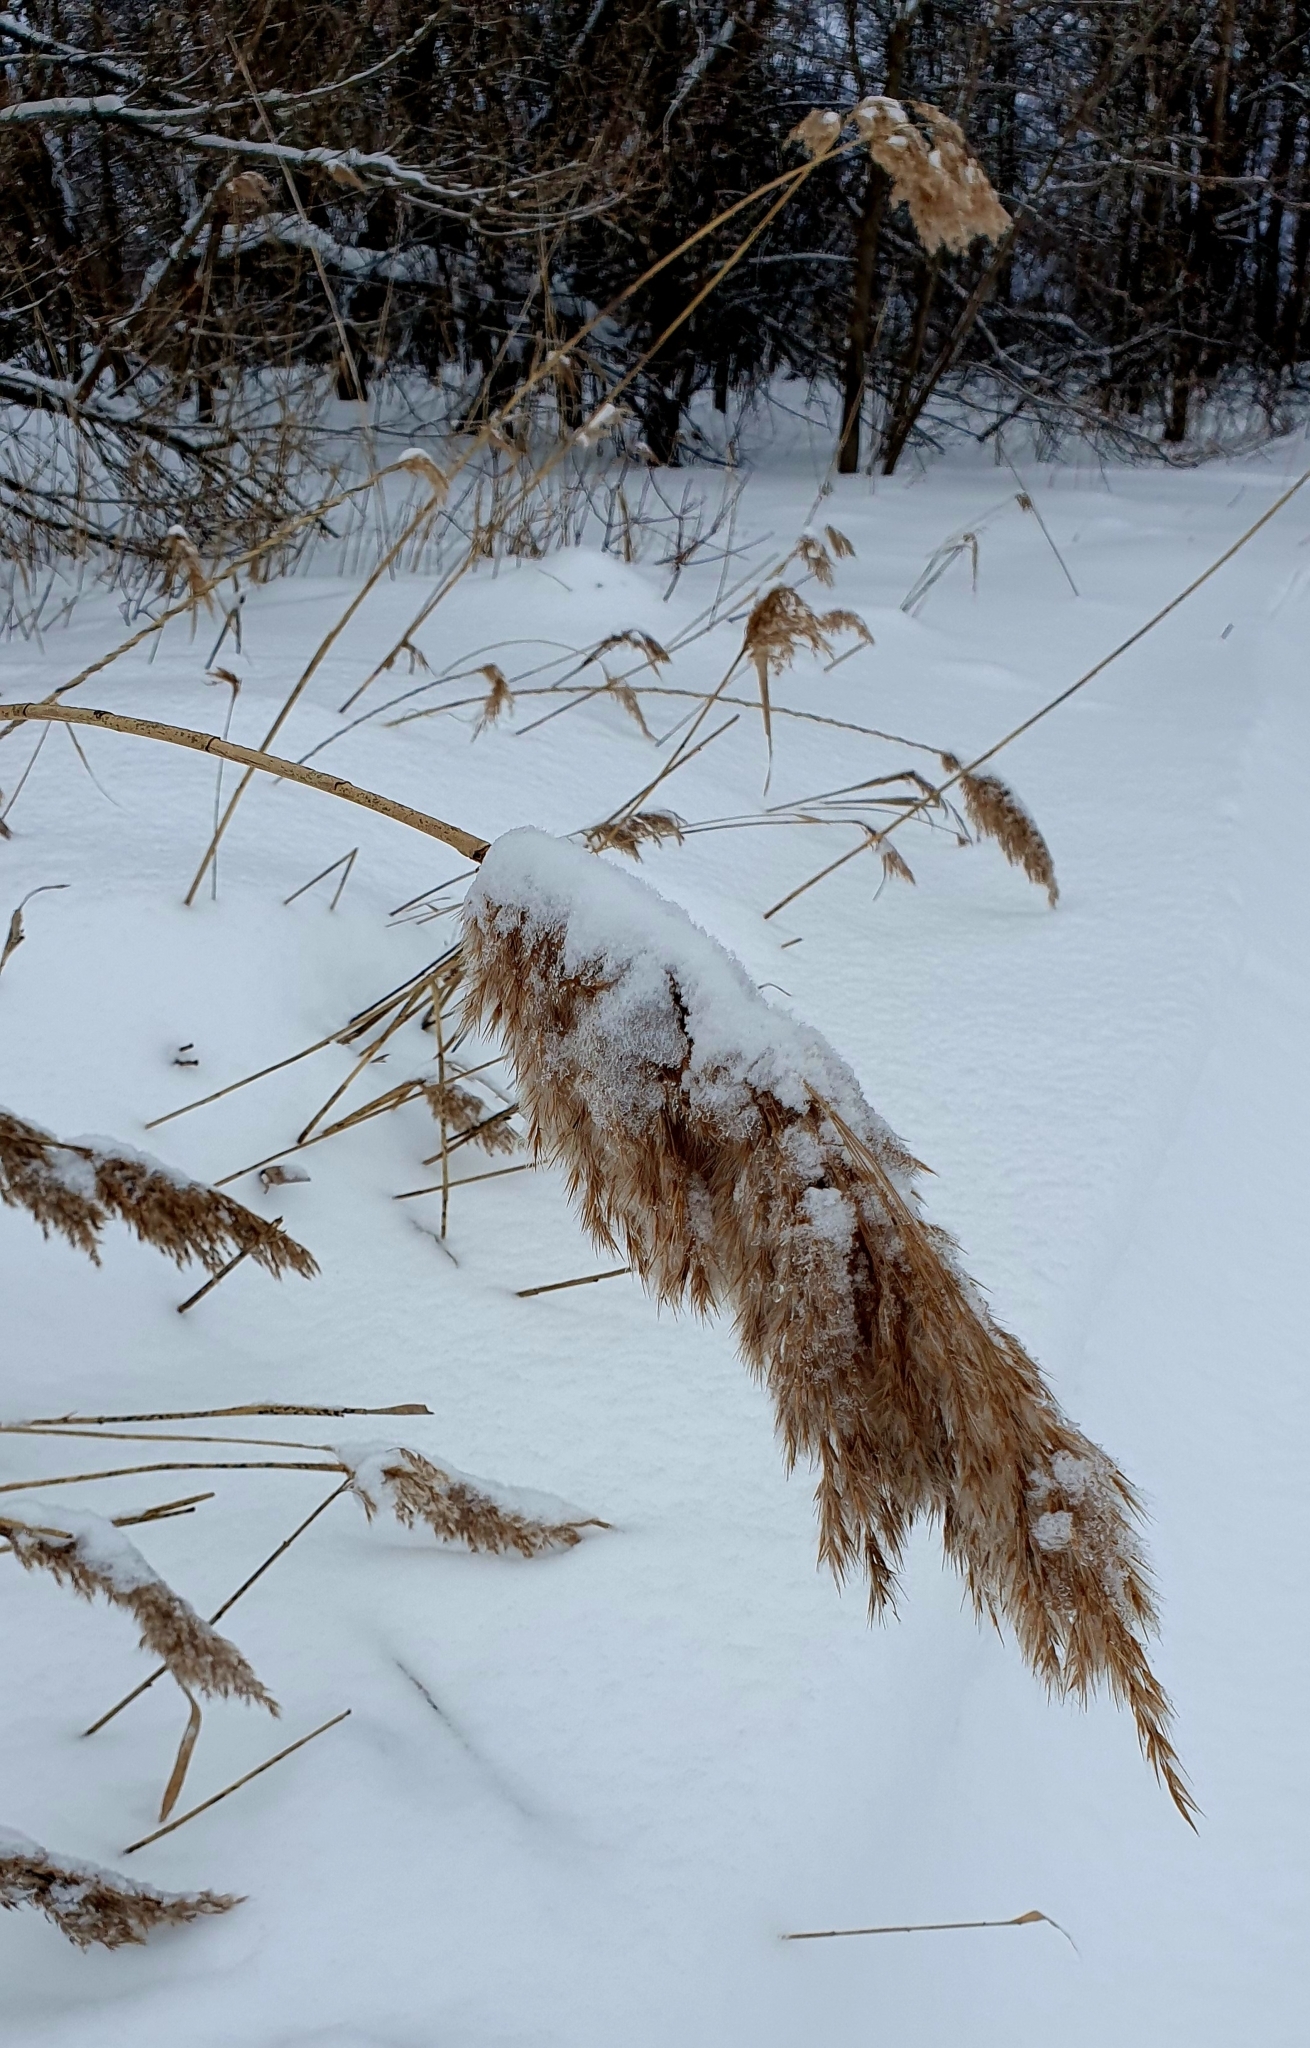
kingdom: Plantae
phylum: Tracheophyta
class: Liliopsida
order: Poales
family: Poaceae
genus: Phragmites
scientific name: Phragmites australis
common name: Common reed
